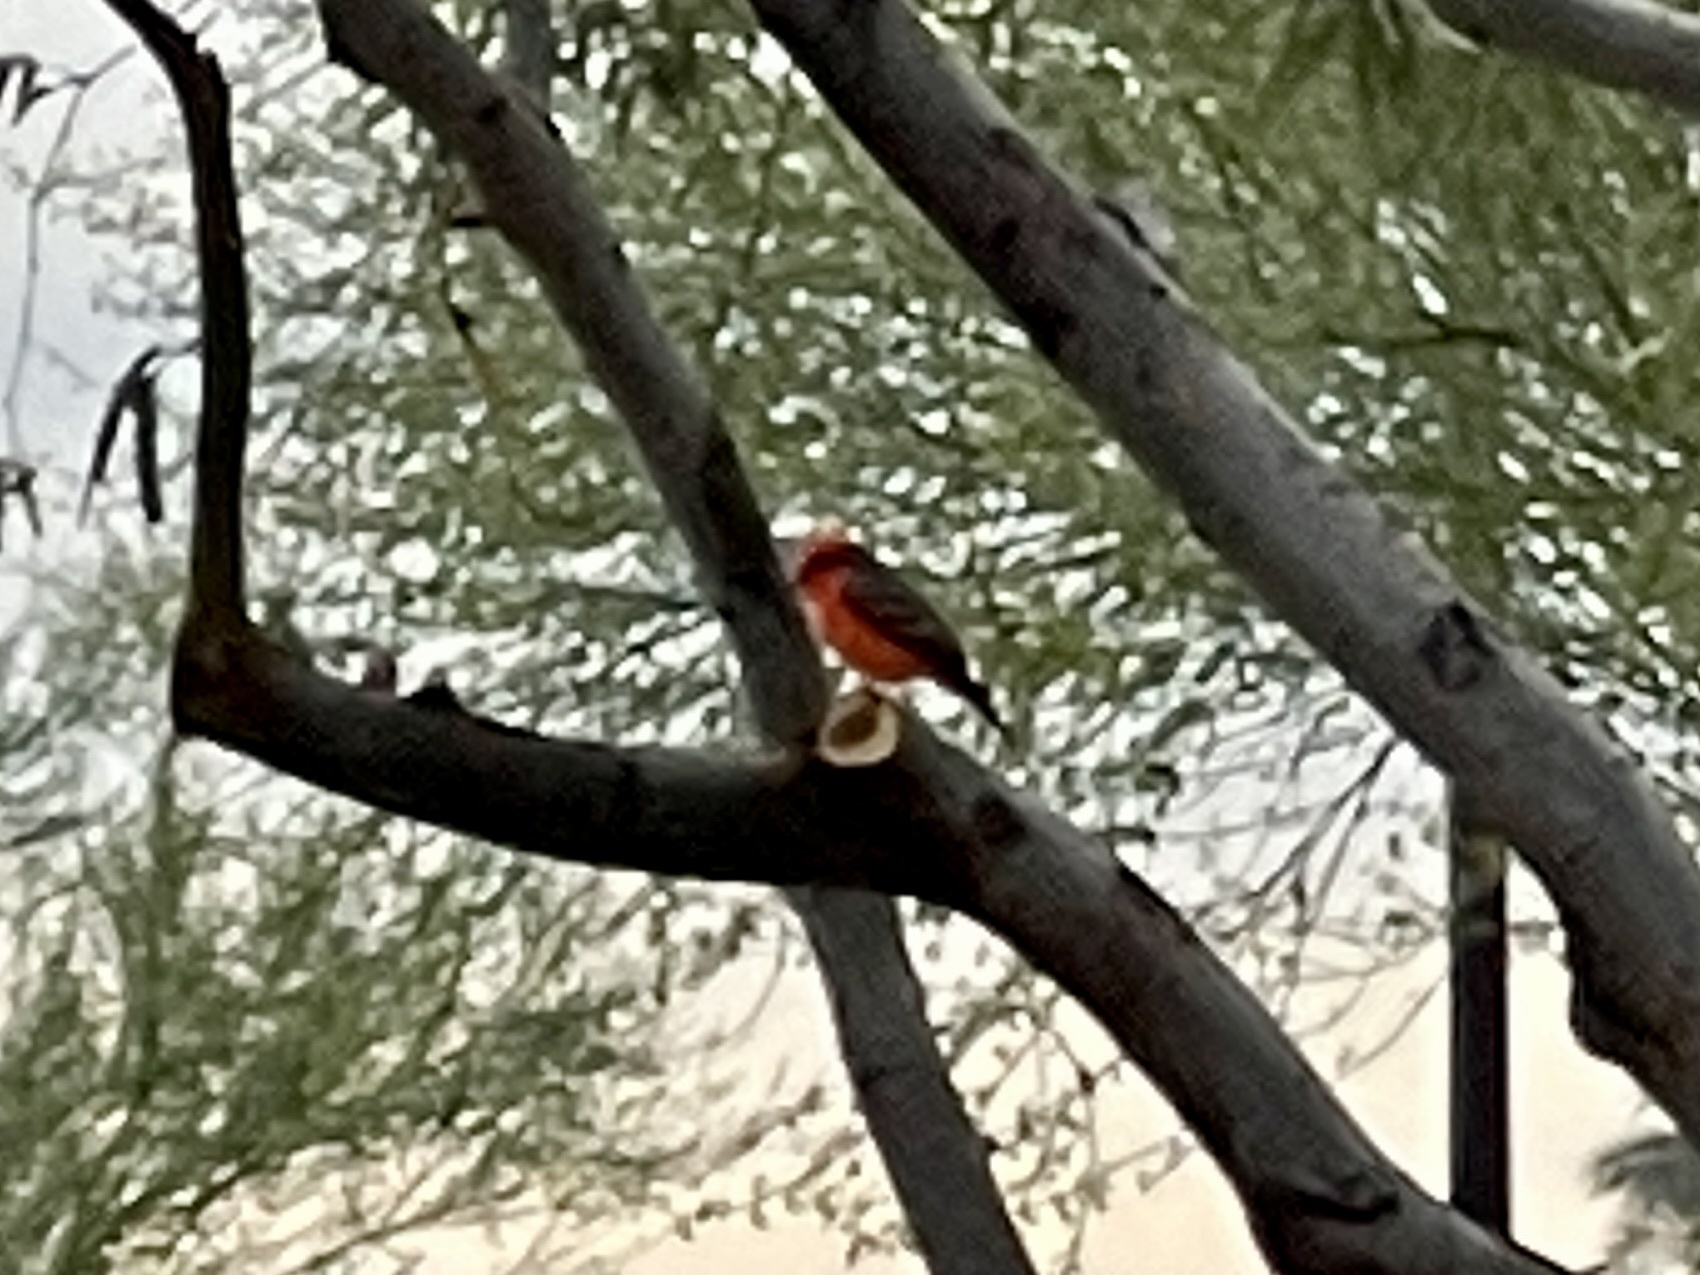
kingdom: Animalia
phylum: Chordata
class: Aves
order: Passeriformes
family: Tyrannidae
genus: Pyrocephalus
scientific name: Pyrocephalus rubinus
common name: Vermilion flycatcher
